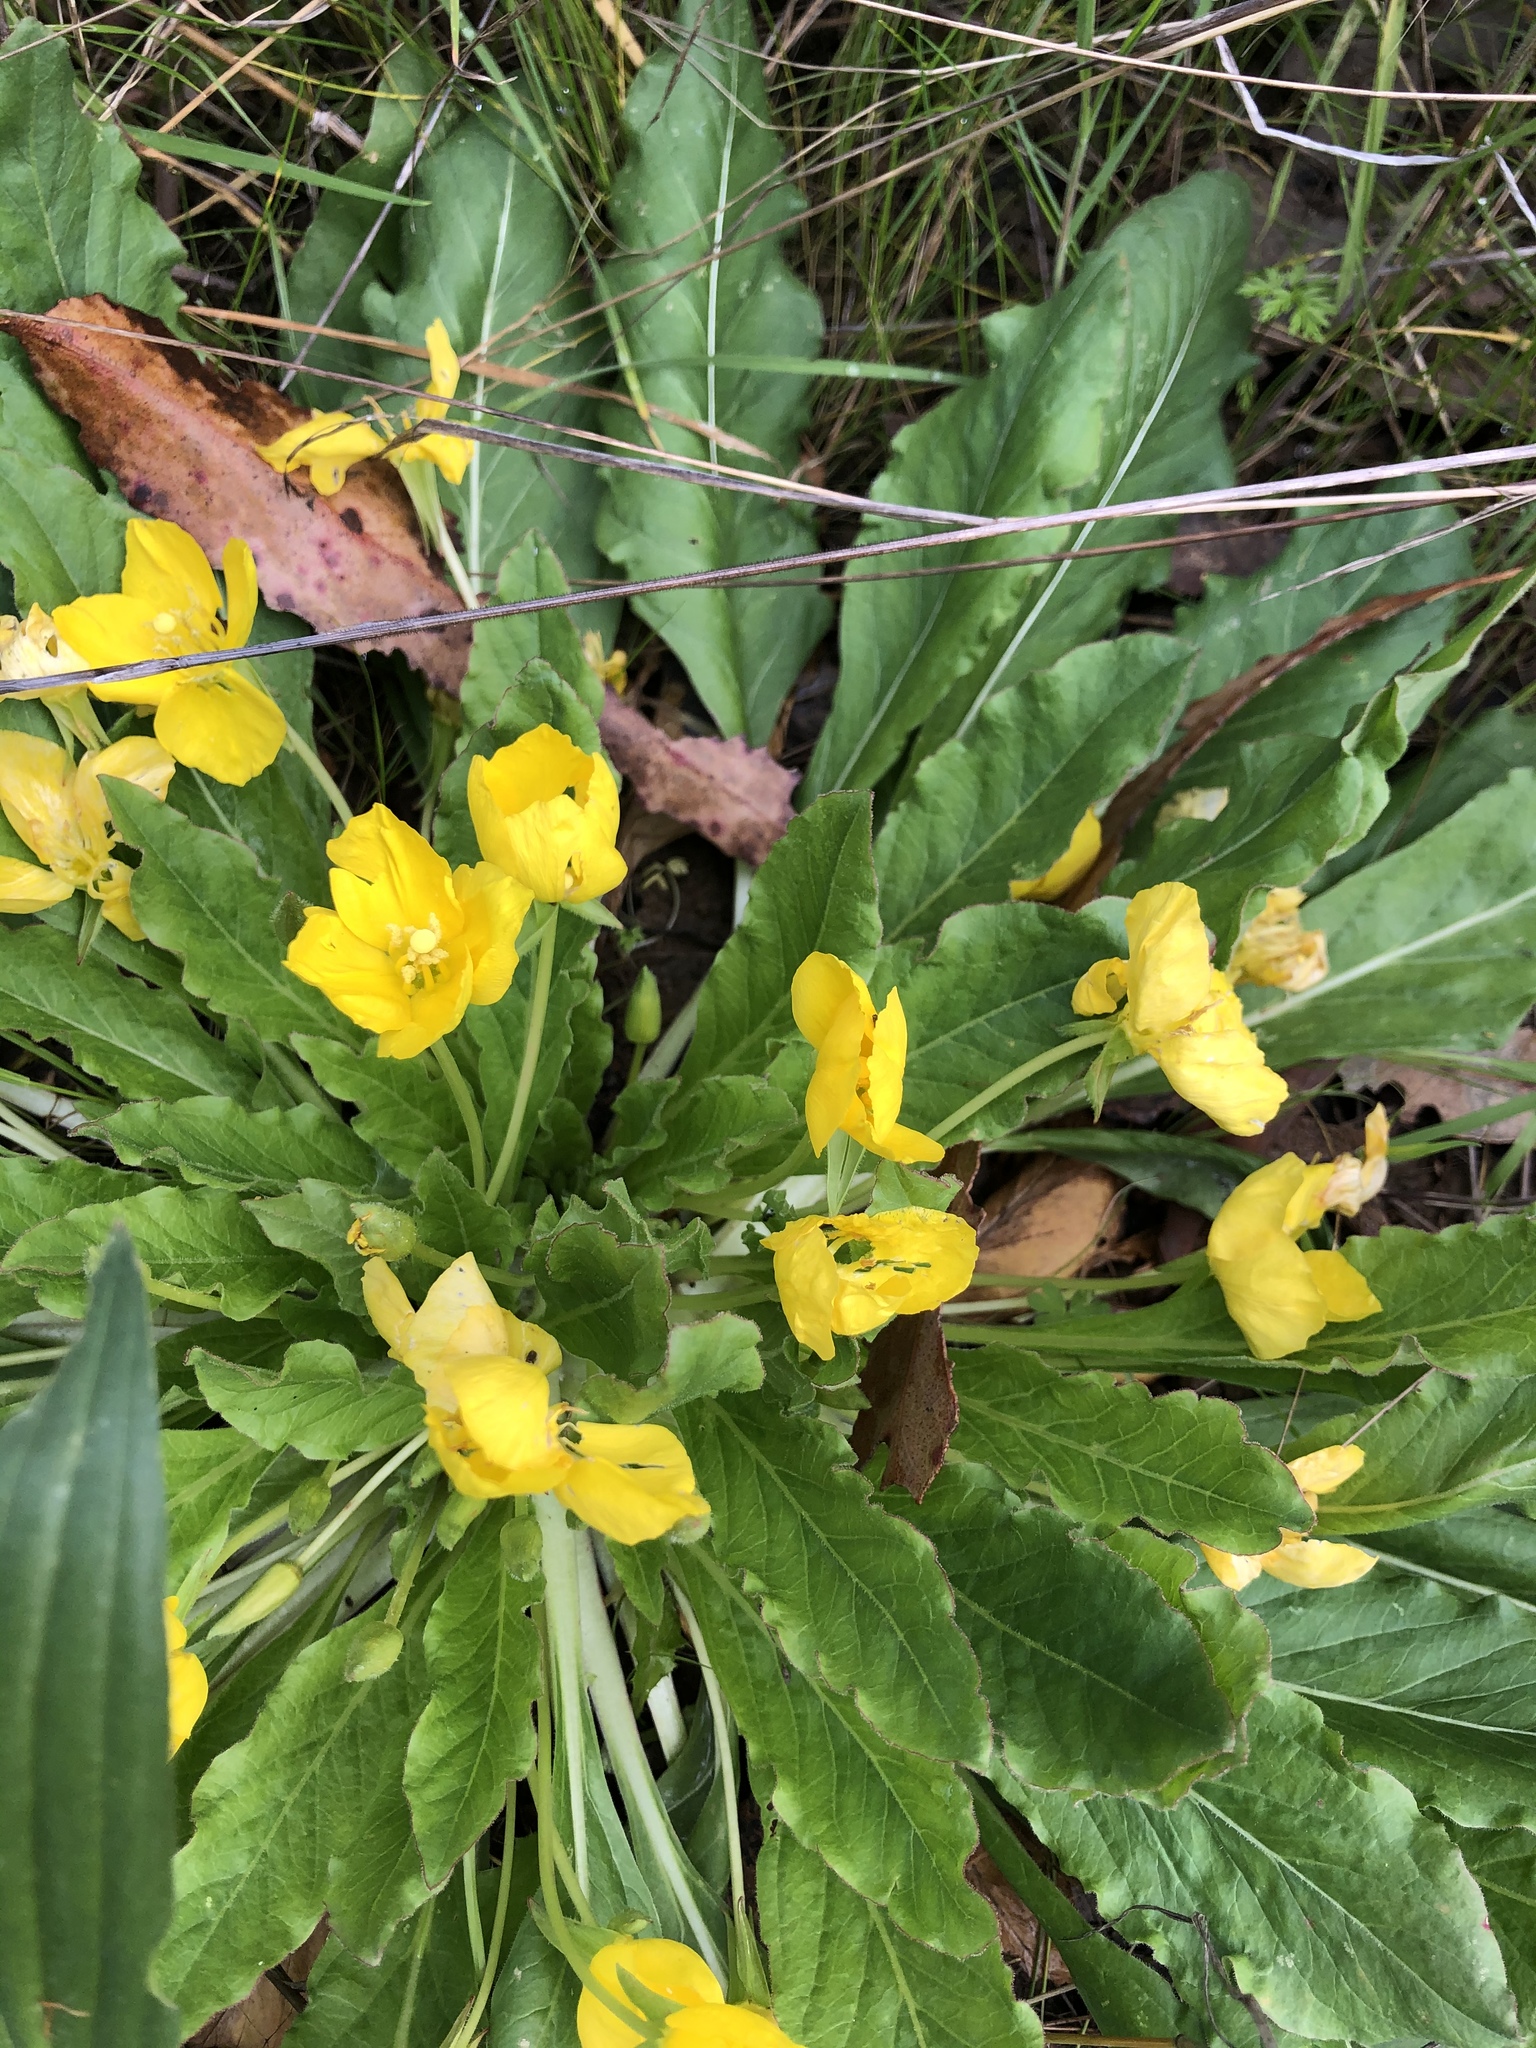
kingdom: Plantae
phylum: Tracheophyta
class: Magnoliopsida
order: Myrtales
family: Onagraceae
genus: Taraxia
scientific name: Taraxia ovata
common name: Goldeneggs
